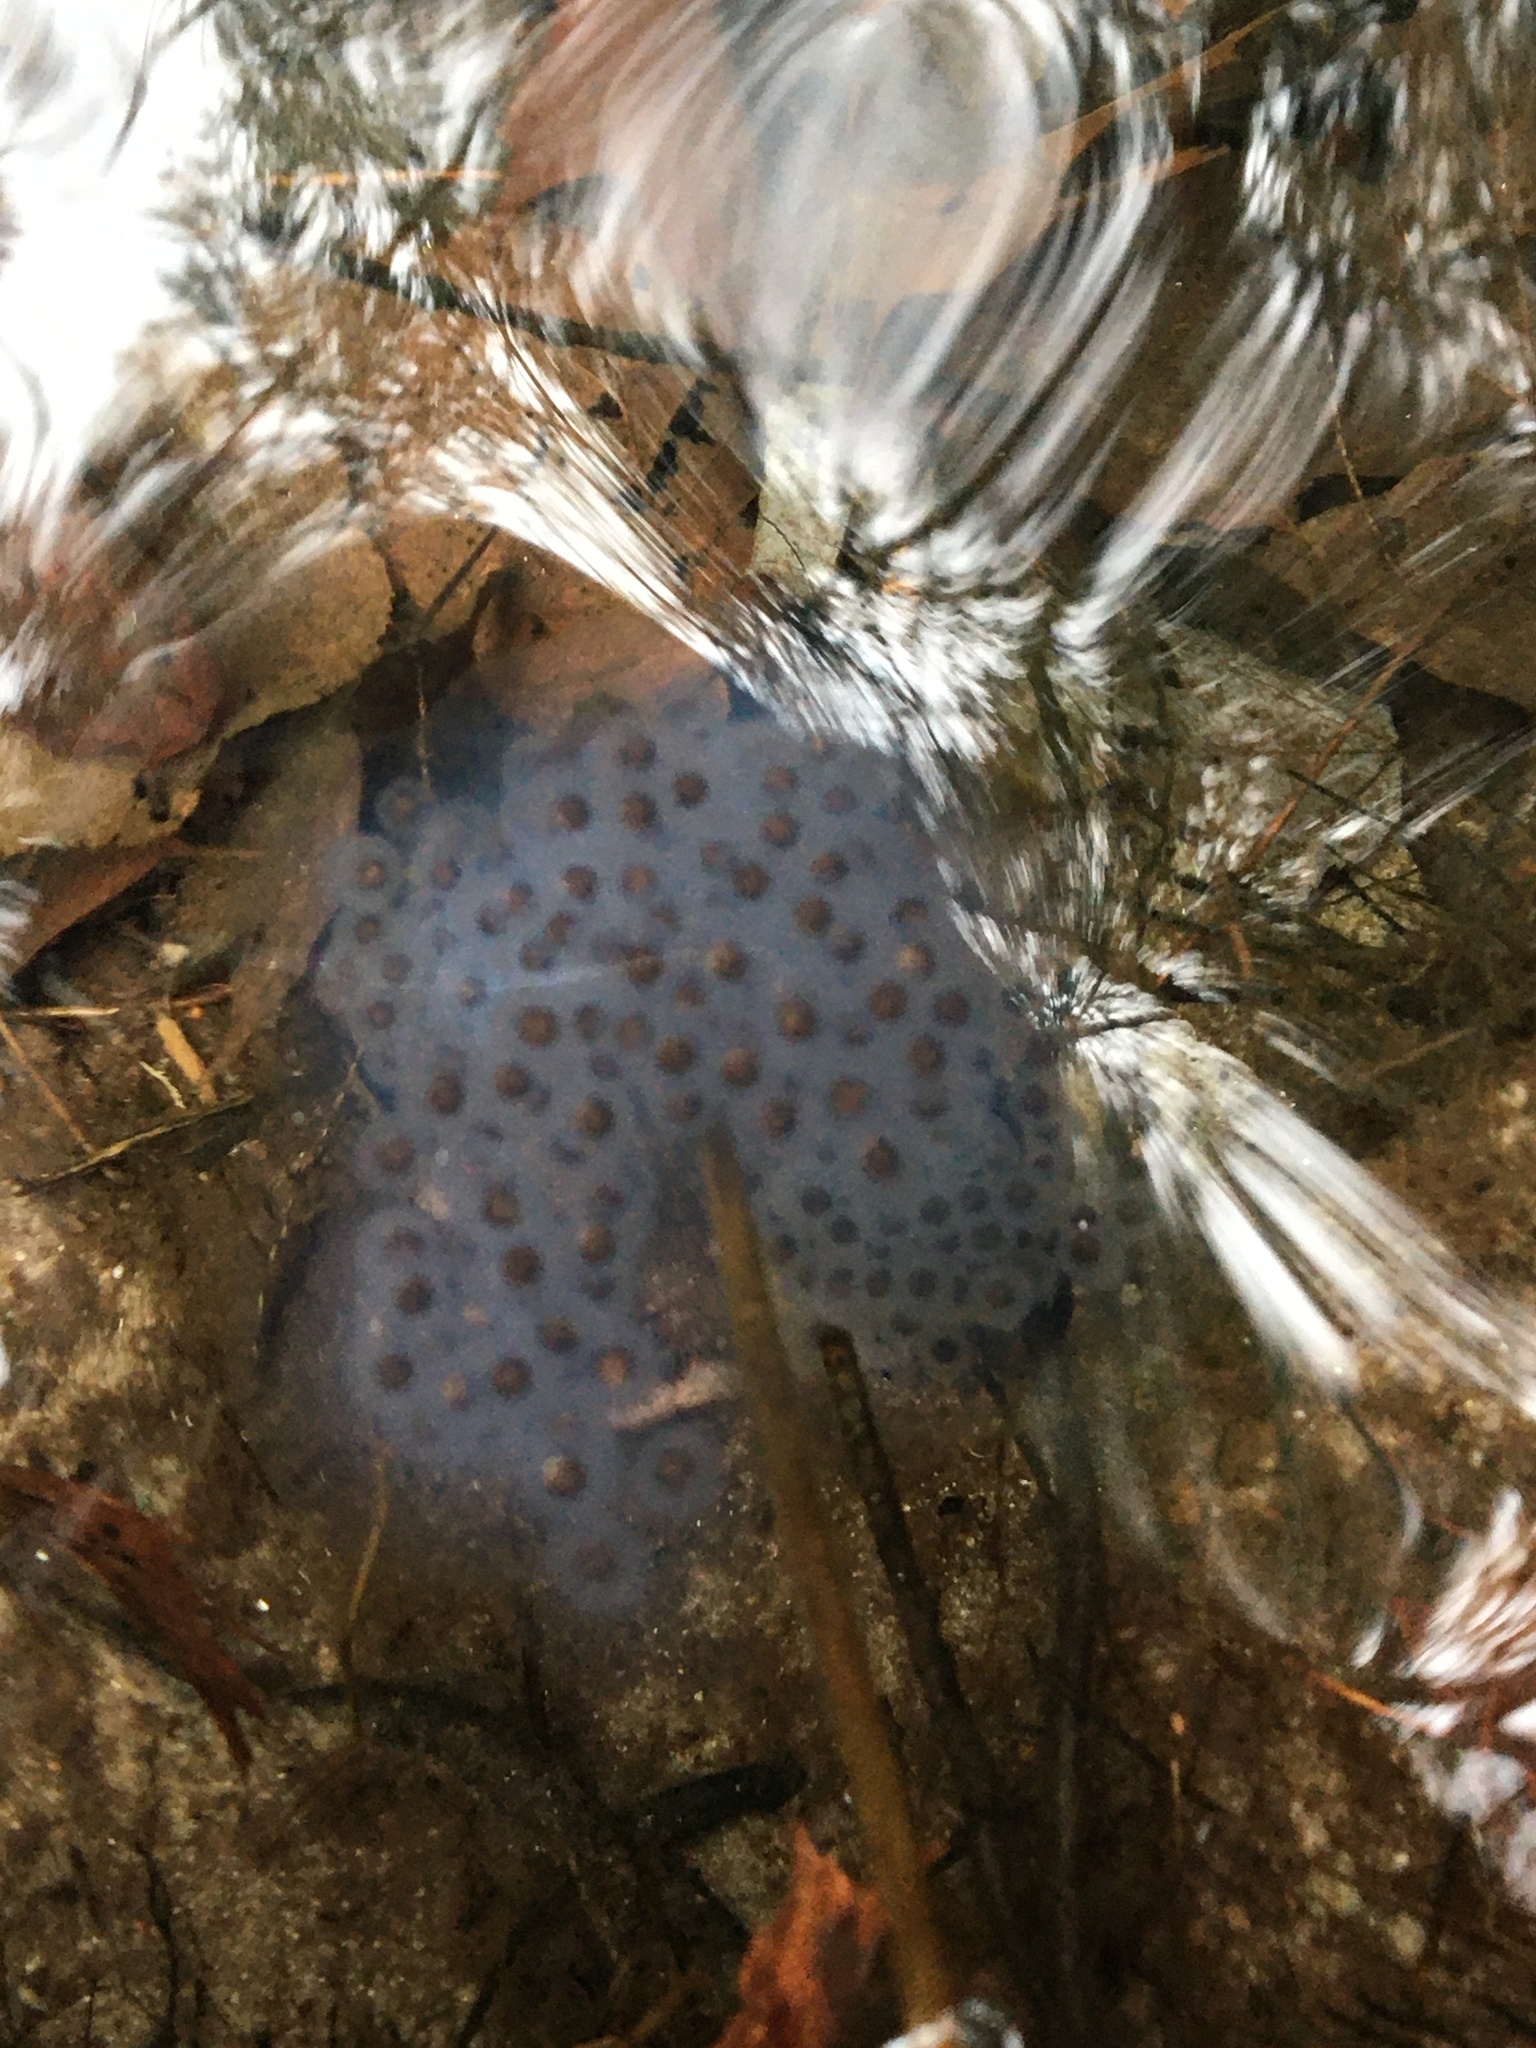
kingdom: Animalia
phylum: Chordata
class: Amphibia
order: Caudata
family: Ambystomatidae
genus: Ambystoma
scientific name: Ambystoma maculatum
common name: Spotted salamander
